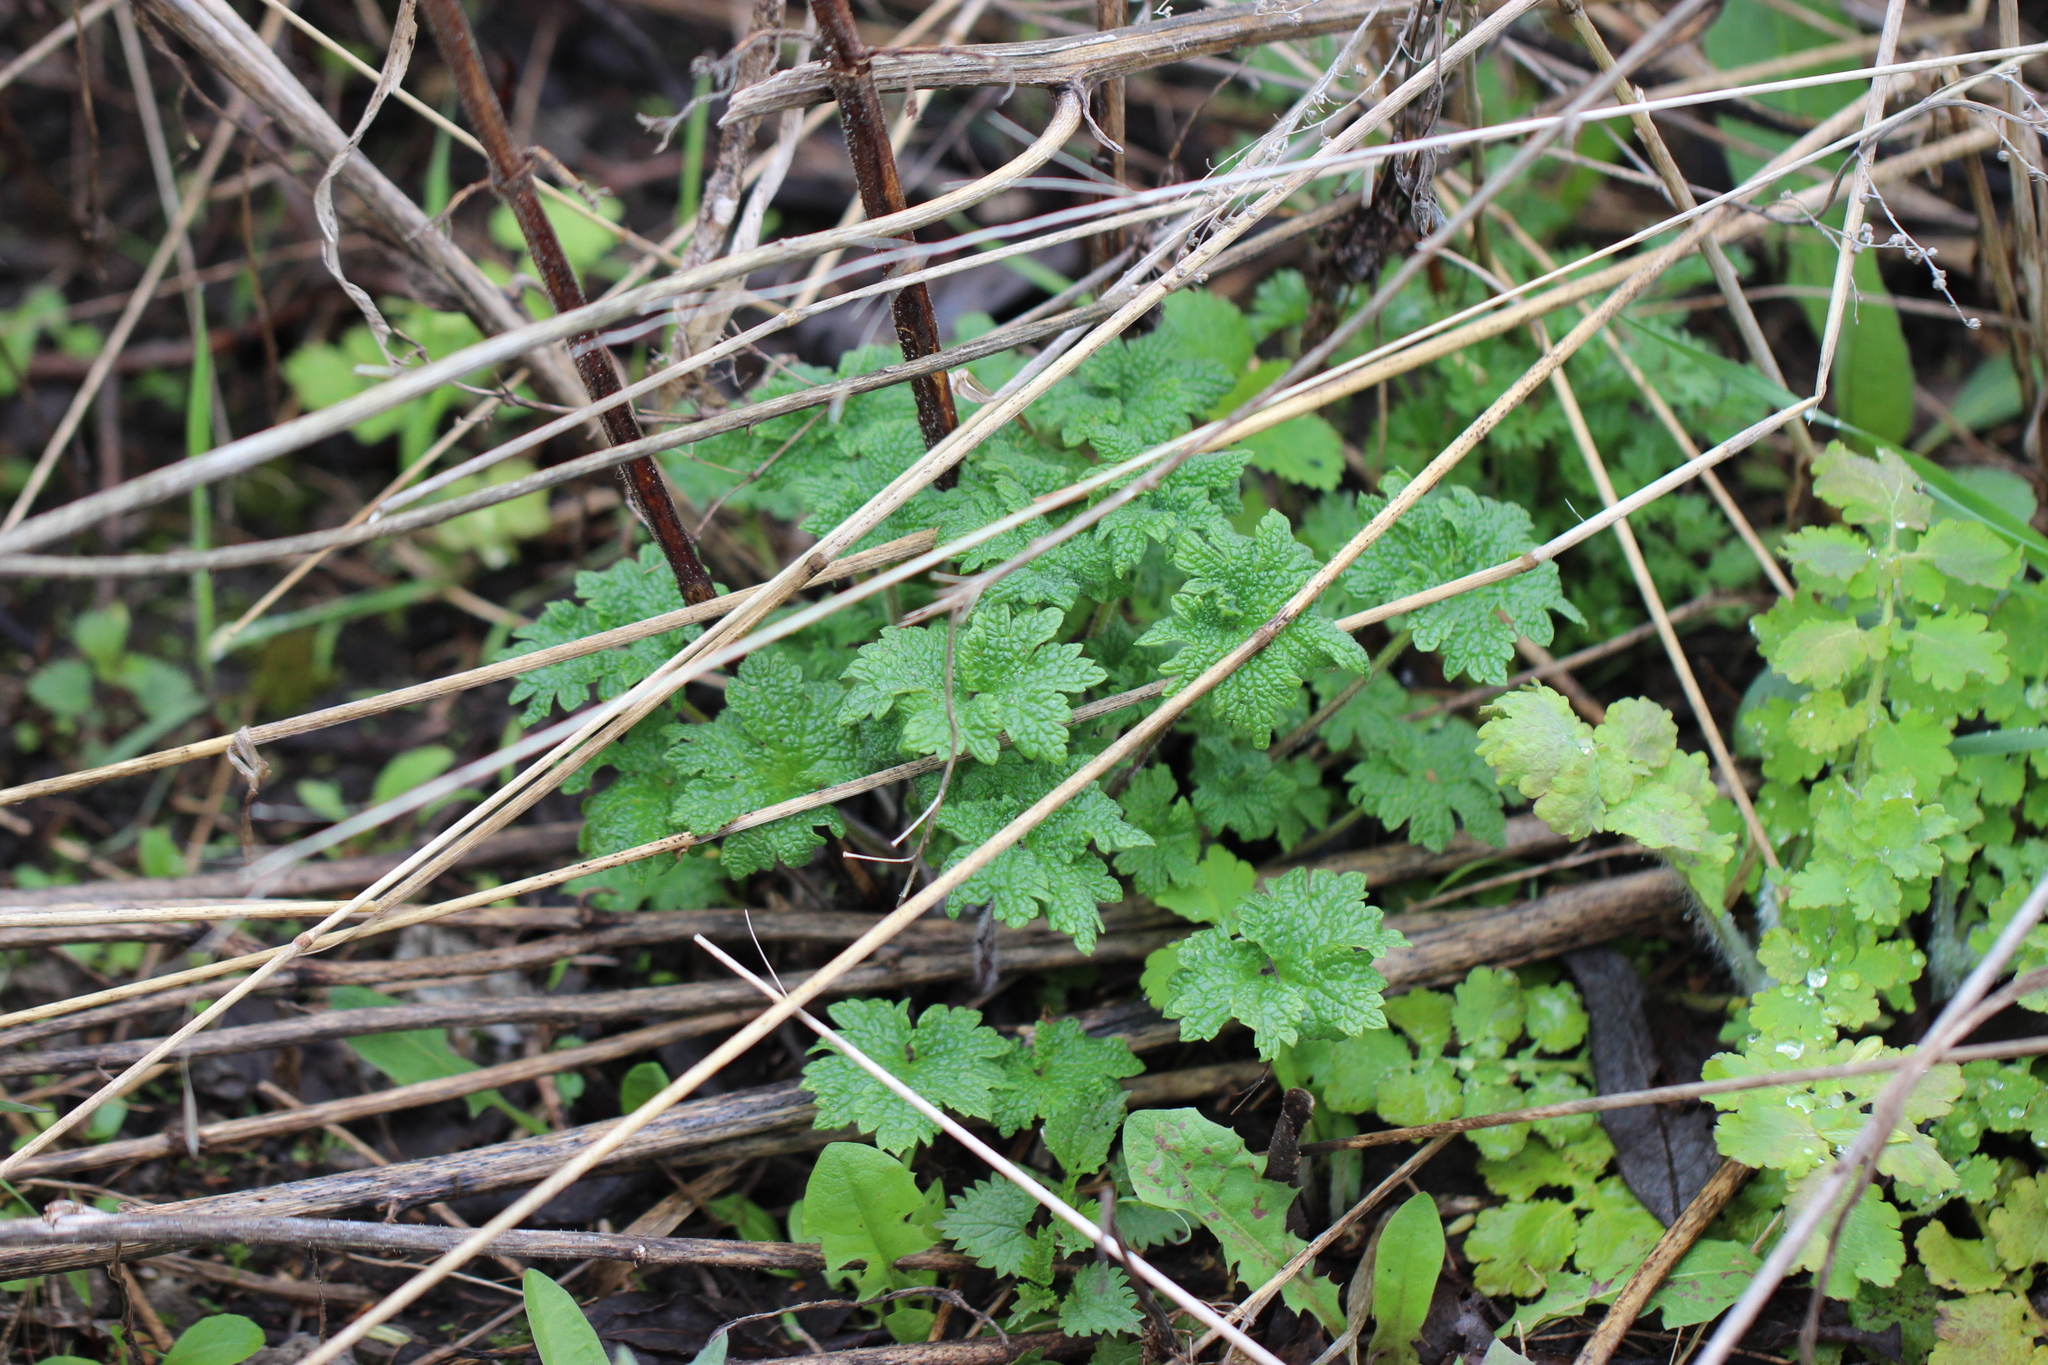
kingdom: Plantae
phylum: Tracheophyta
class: Magnoliopsida
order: Lamiales
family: Lamiaceae
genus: Leonurus
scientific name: Leonurus quinquelobatus
